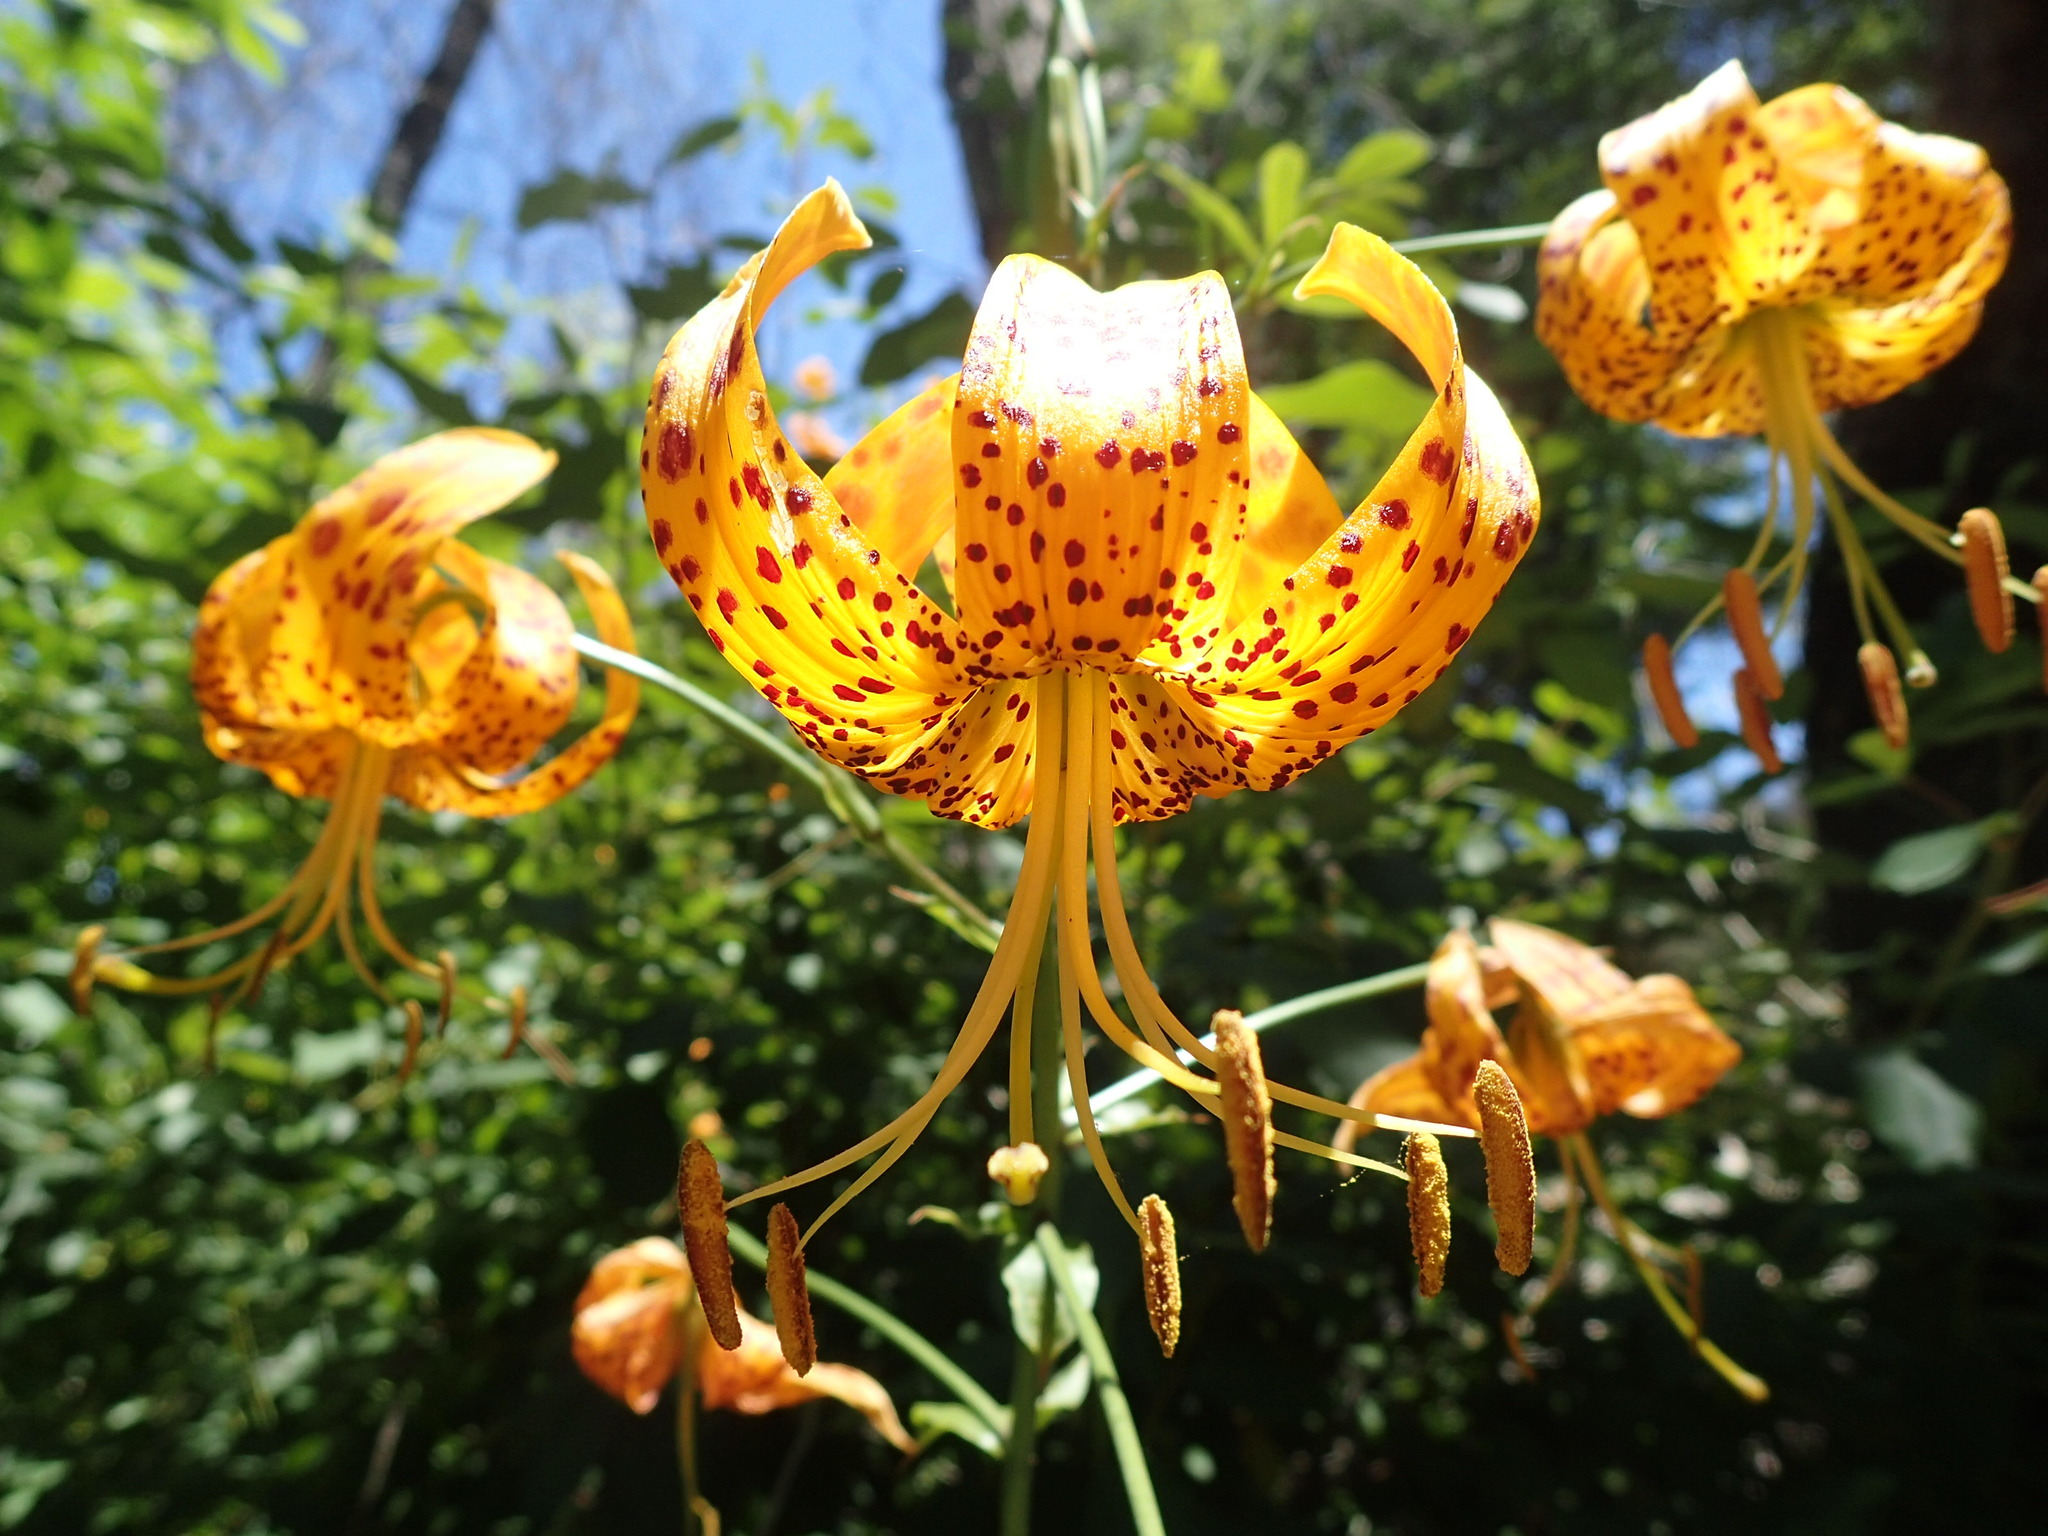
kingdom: Plantae
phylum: Tracheophyta
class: Liliopsida
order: Liliales
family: Liliaceae
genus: Lilium
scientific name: Lilium humboldtii
